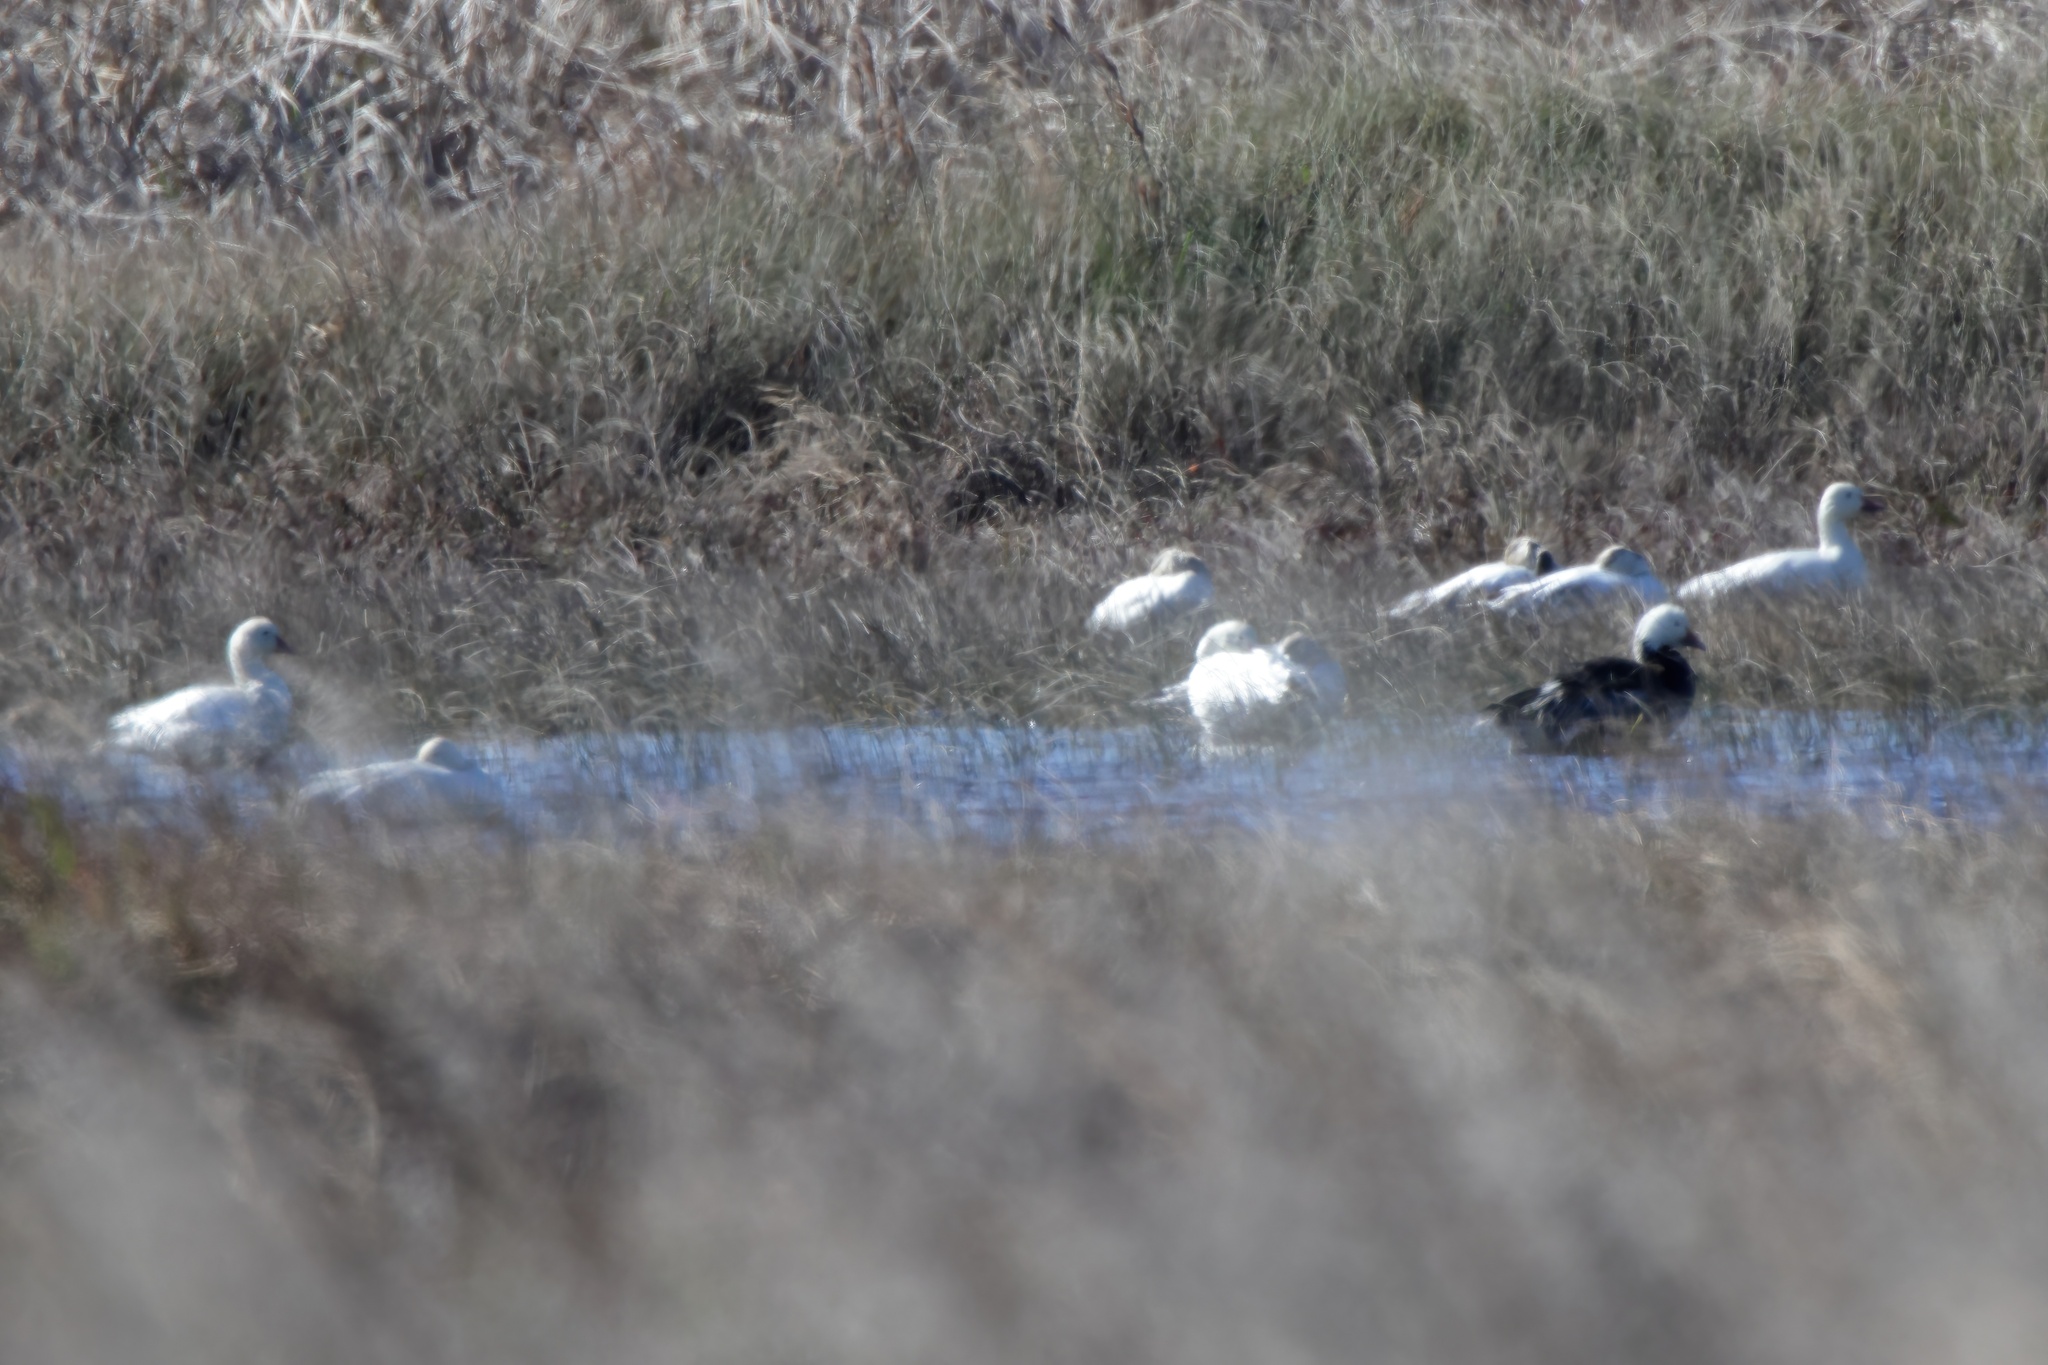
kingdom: Animalia
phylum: Chordata
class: Aves
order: Anseriformes
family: Anatidae
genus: Anser
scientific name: Anser caerulescens
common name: Snow goose
